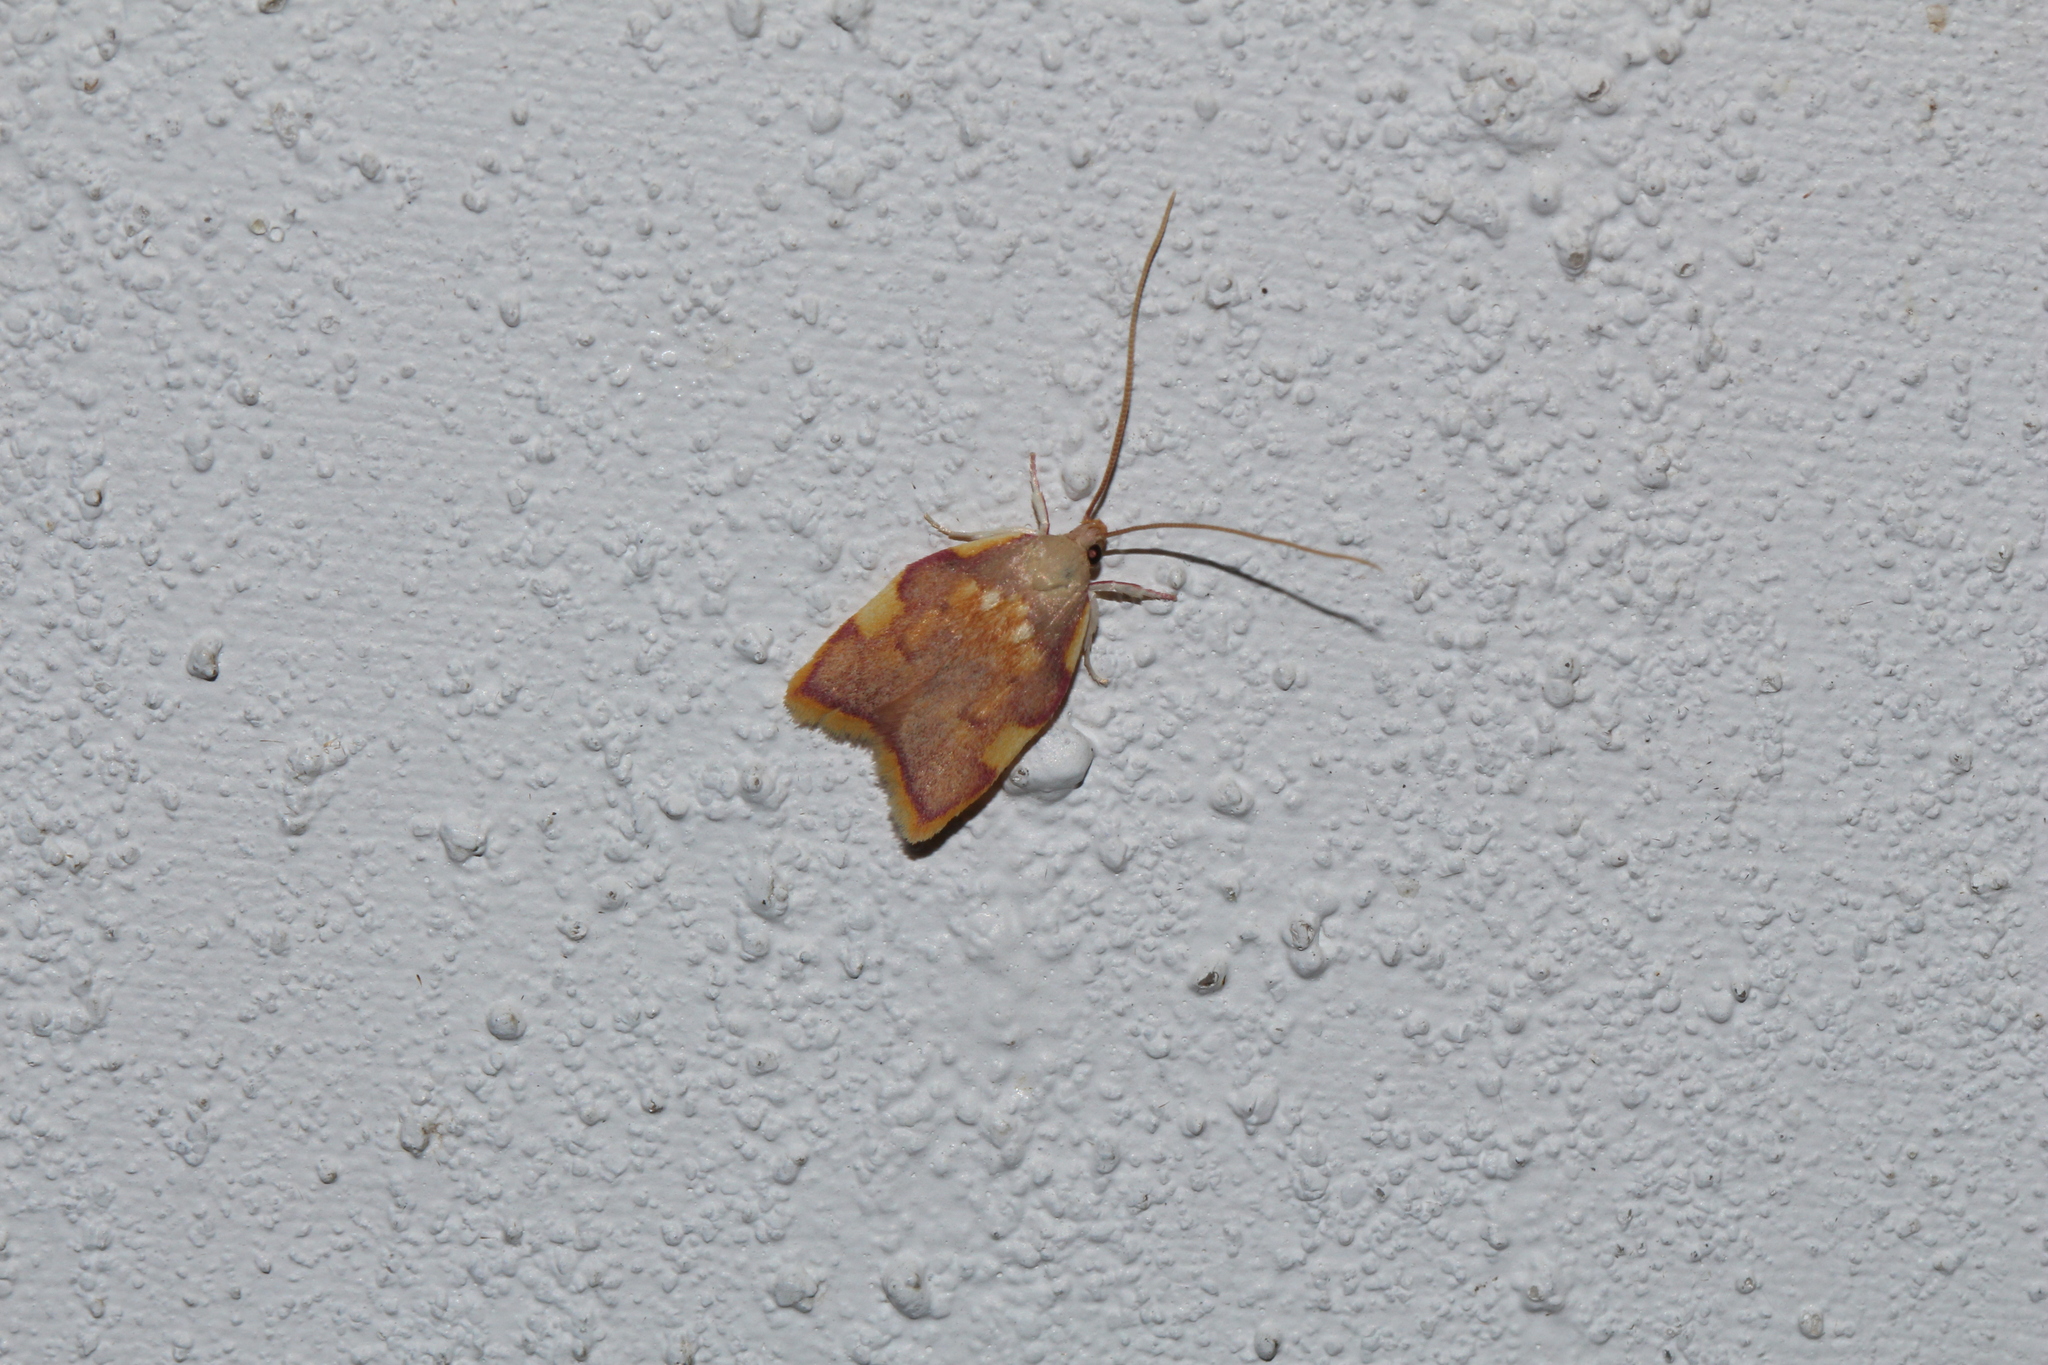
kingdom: Animalia
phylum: Arthropoda
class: Insecta
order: Lepidoptera
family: Peleopodidae
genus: Carcina
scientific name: Carcina quercana
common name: Moth
